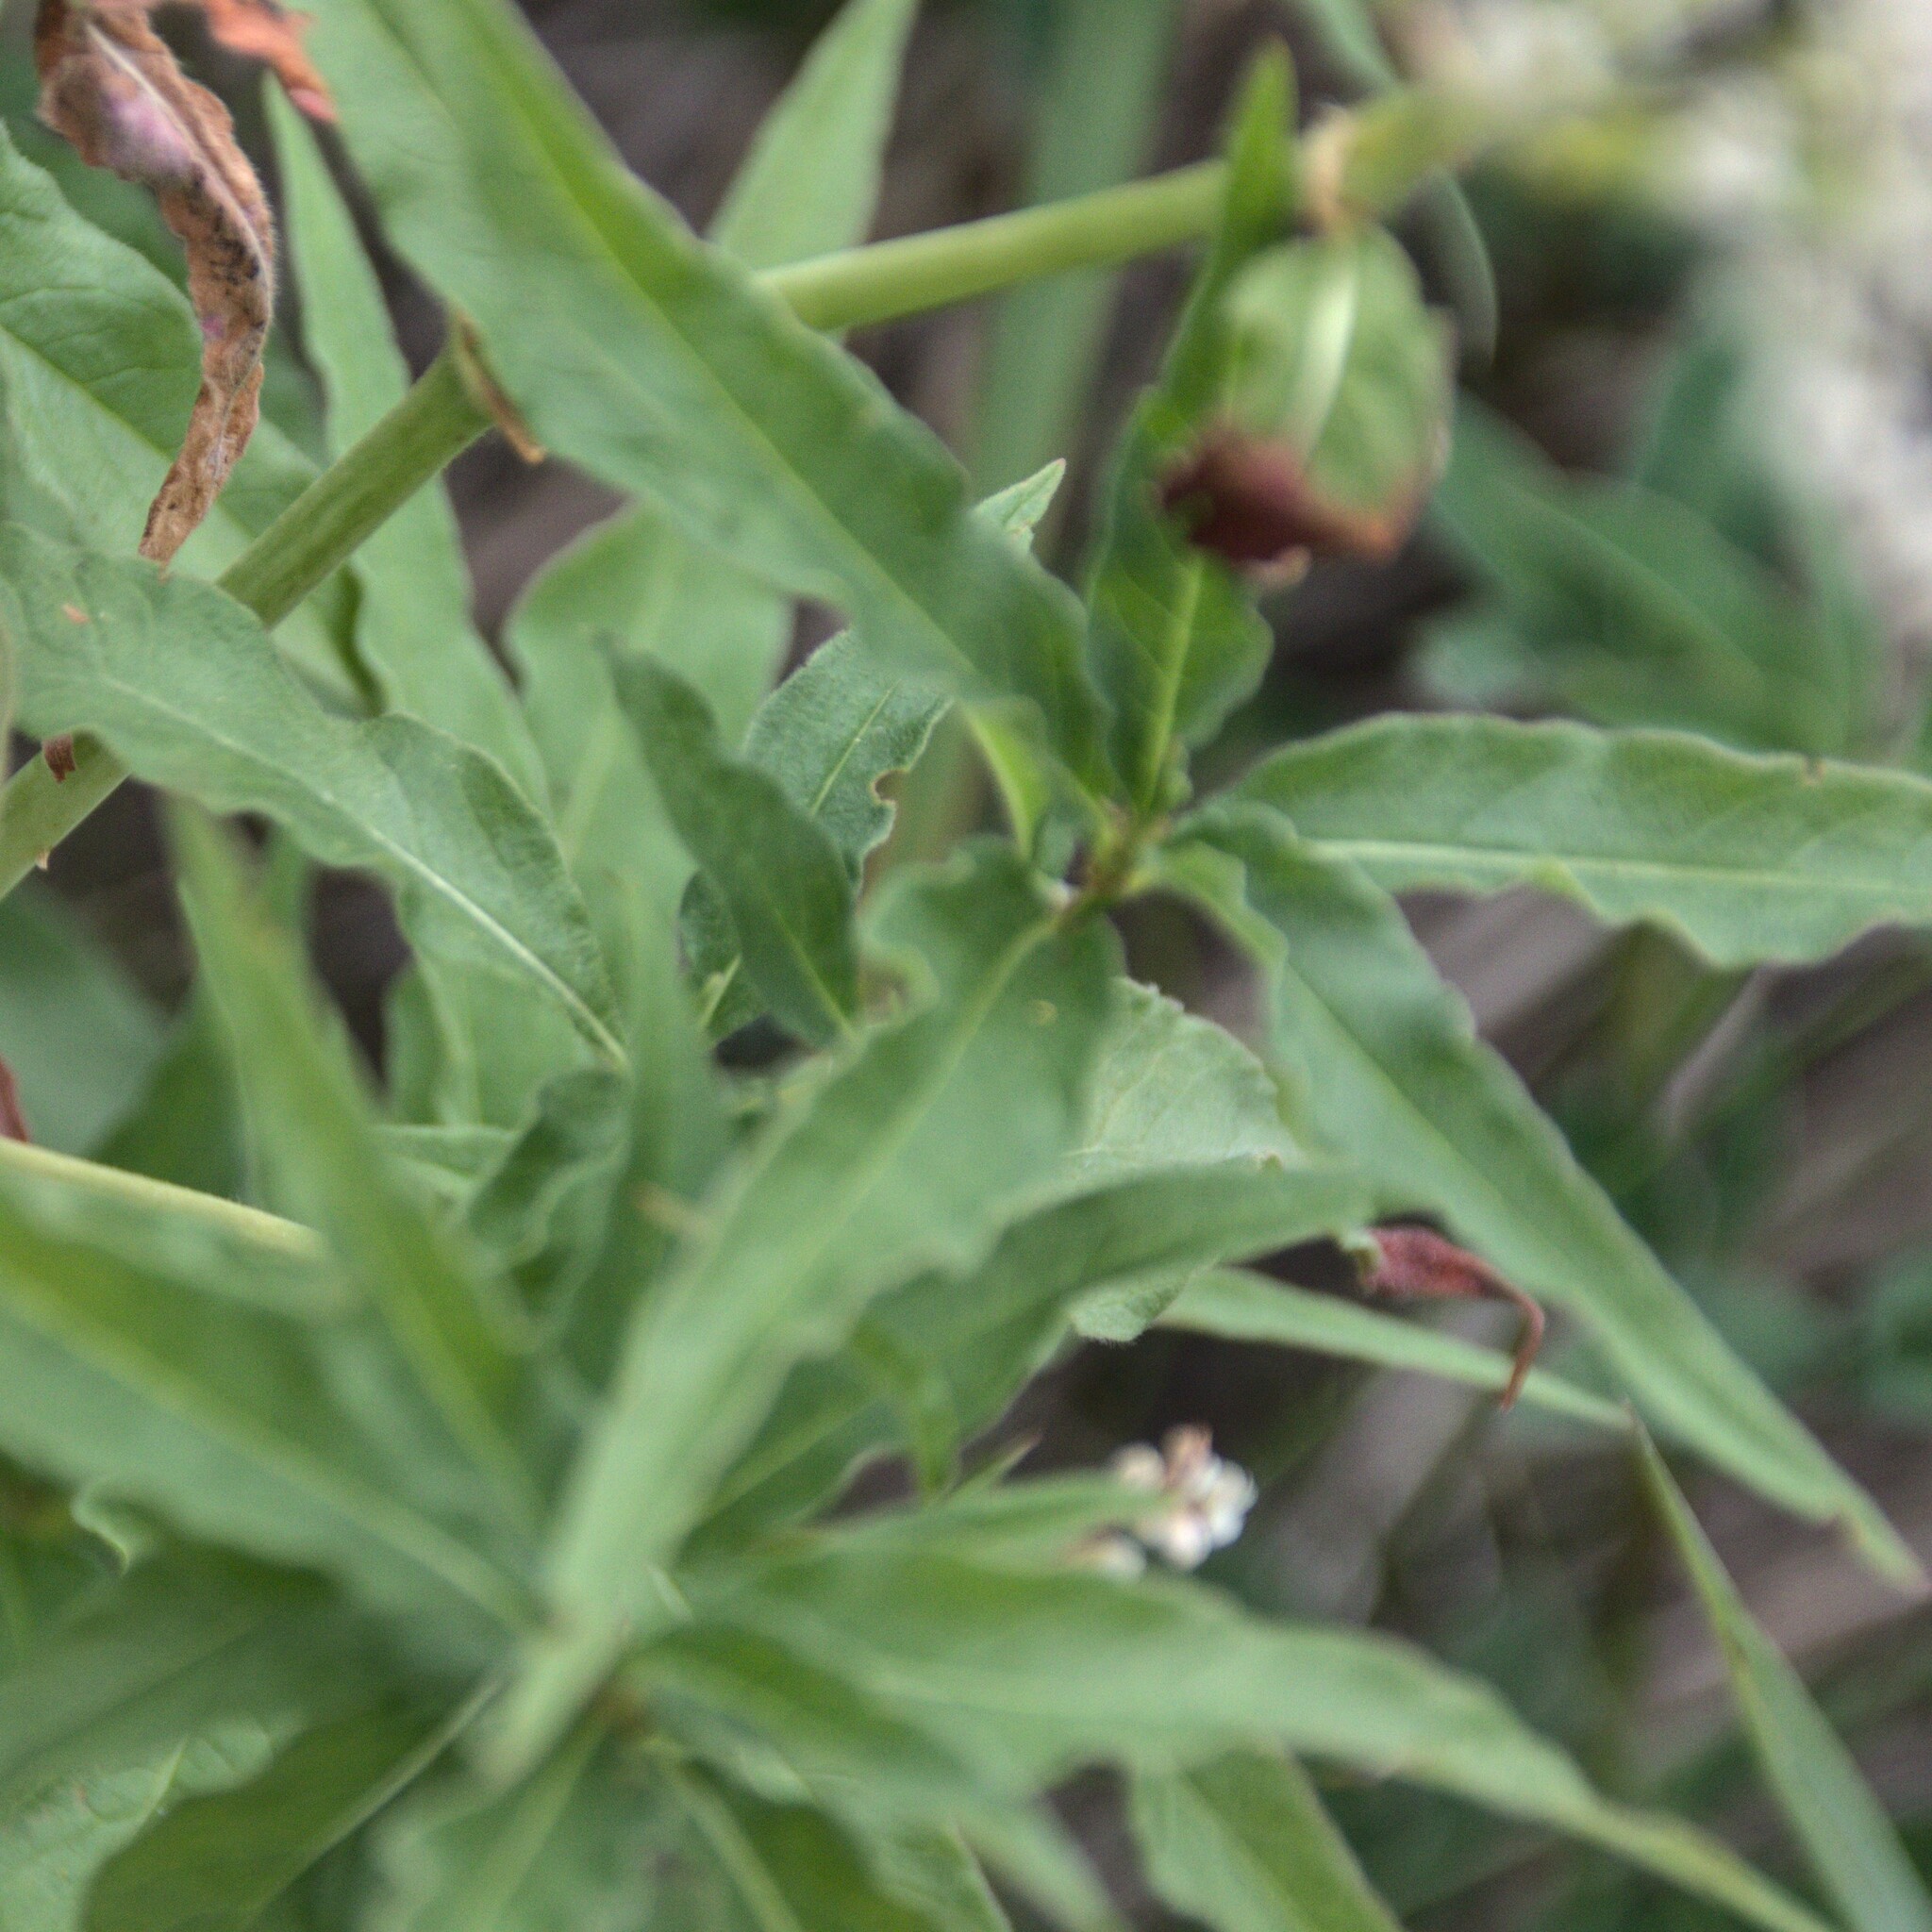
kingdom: Plantae
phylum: Tracheophyta
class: Magnoliopsida
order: Caryophyllales
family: Polygonaceae
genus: Koenigia
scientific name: Koenigia alpina
